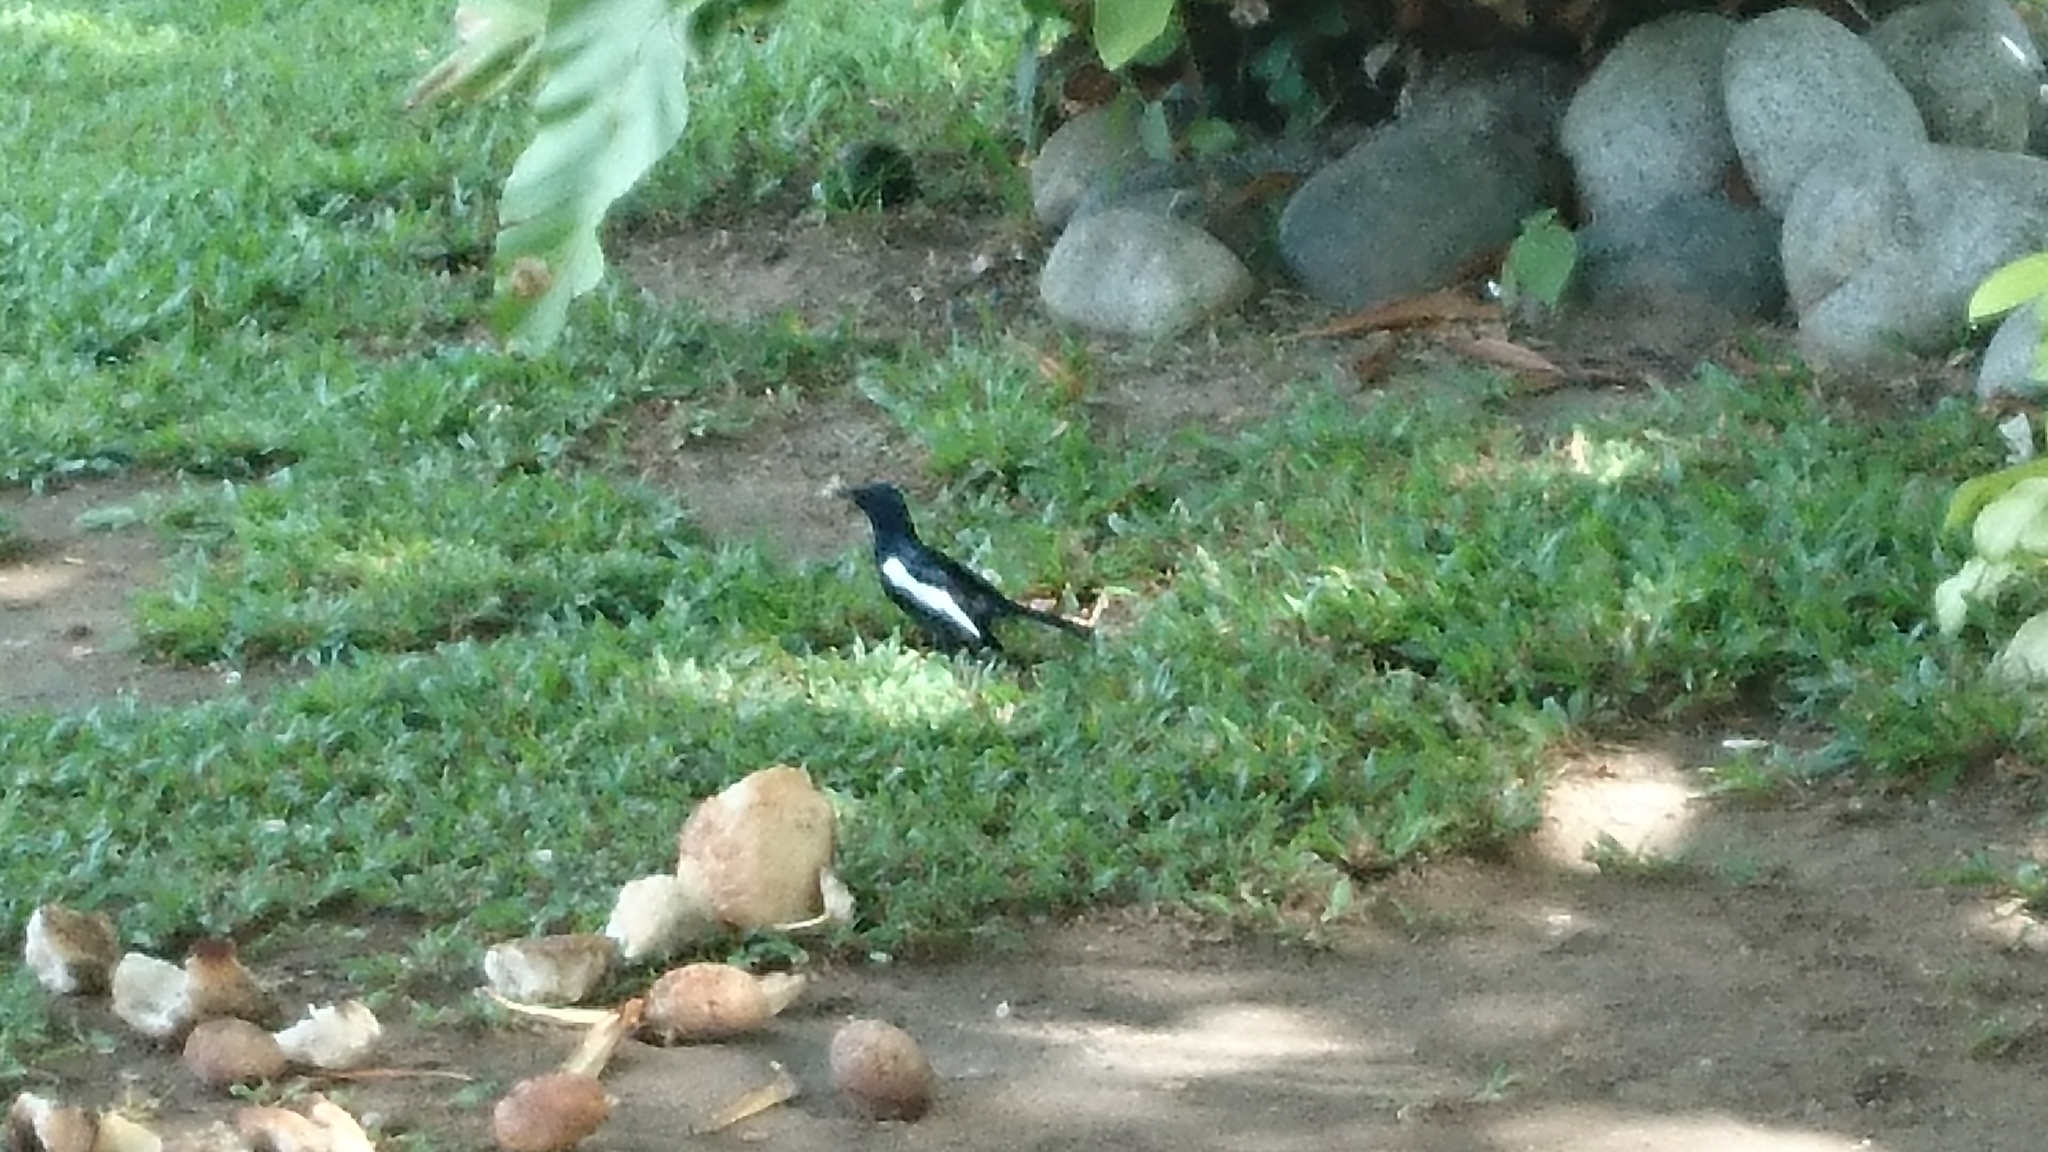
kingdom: Animalia
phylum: Chordata
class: Aves
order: Passeriformes
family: Muscicapidae
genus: Copsychus
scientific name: Copsychus saularis
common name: Oriental magpie-robin
